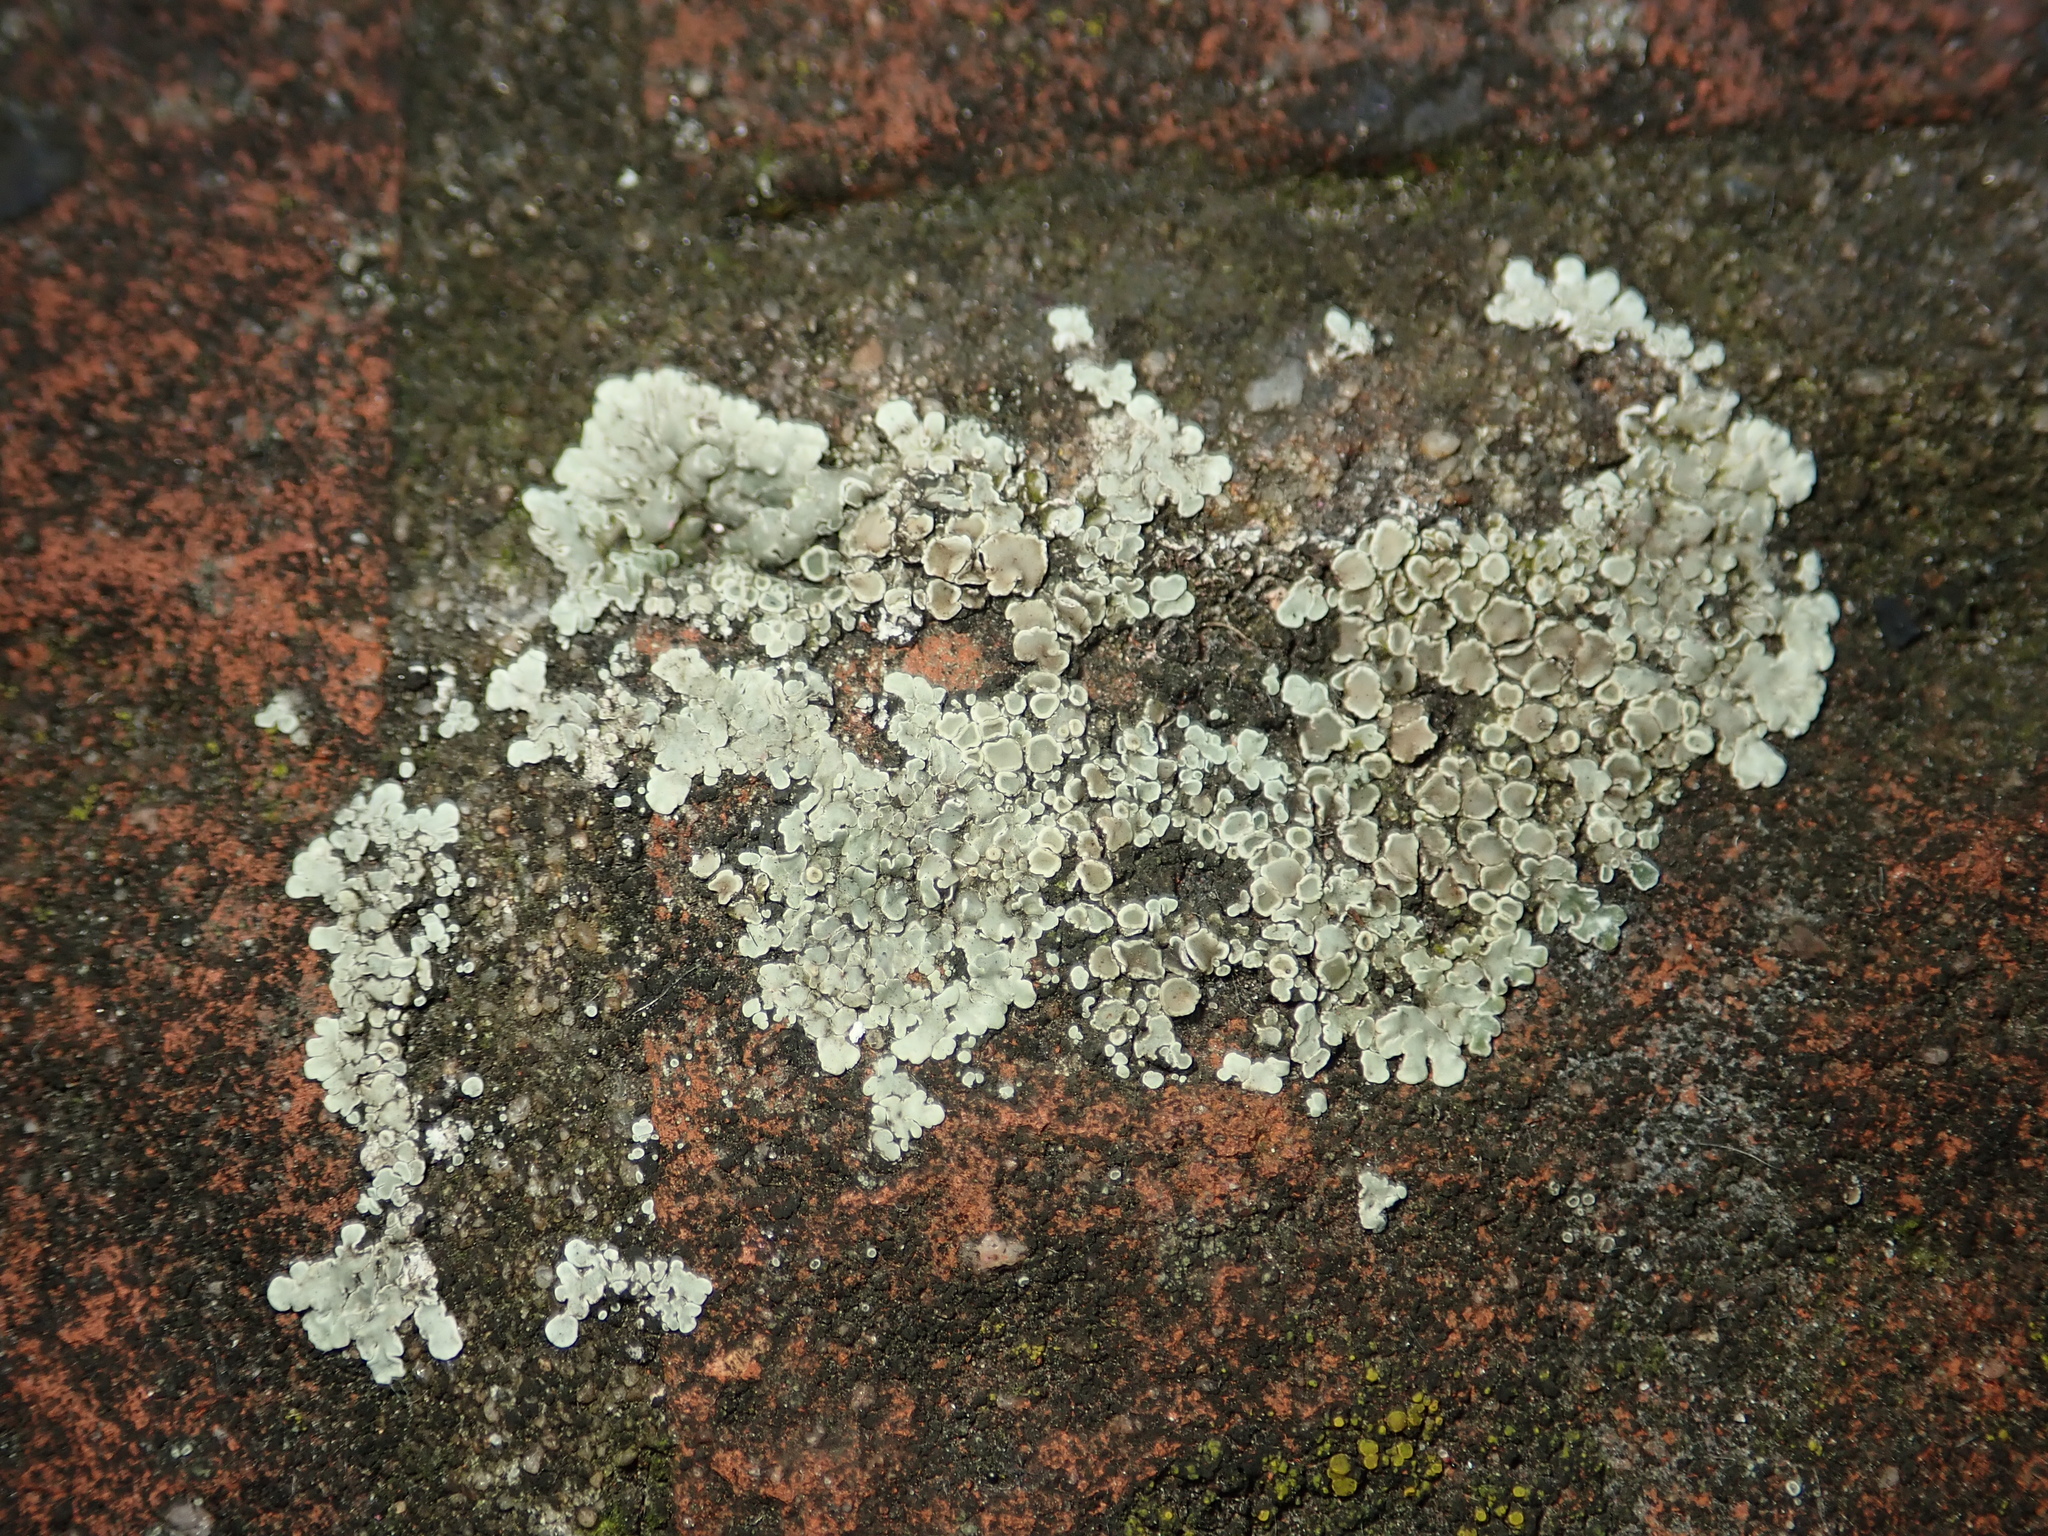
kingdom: Fungi
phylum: Ascomycota
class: Lecanoromycetes
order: Lecanorales
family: Lecanoraceae
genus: Protoparmeliopsis
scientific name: Protoparmeliopsis muralis
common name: Stonewall rim lichen
